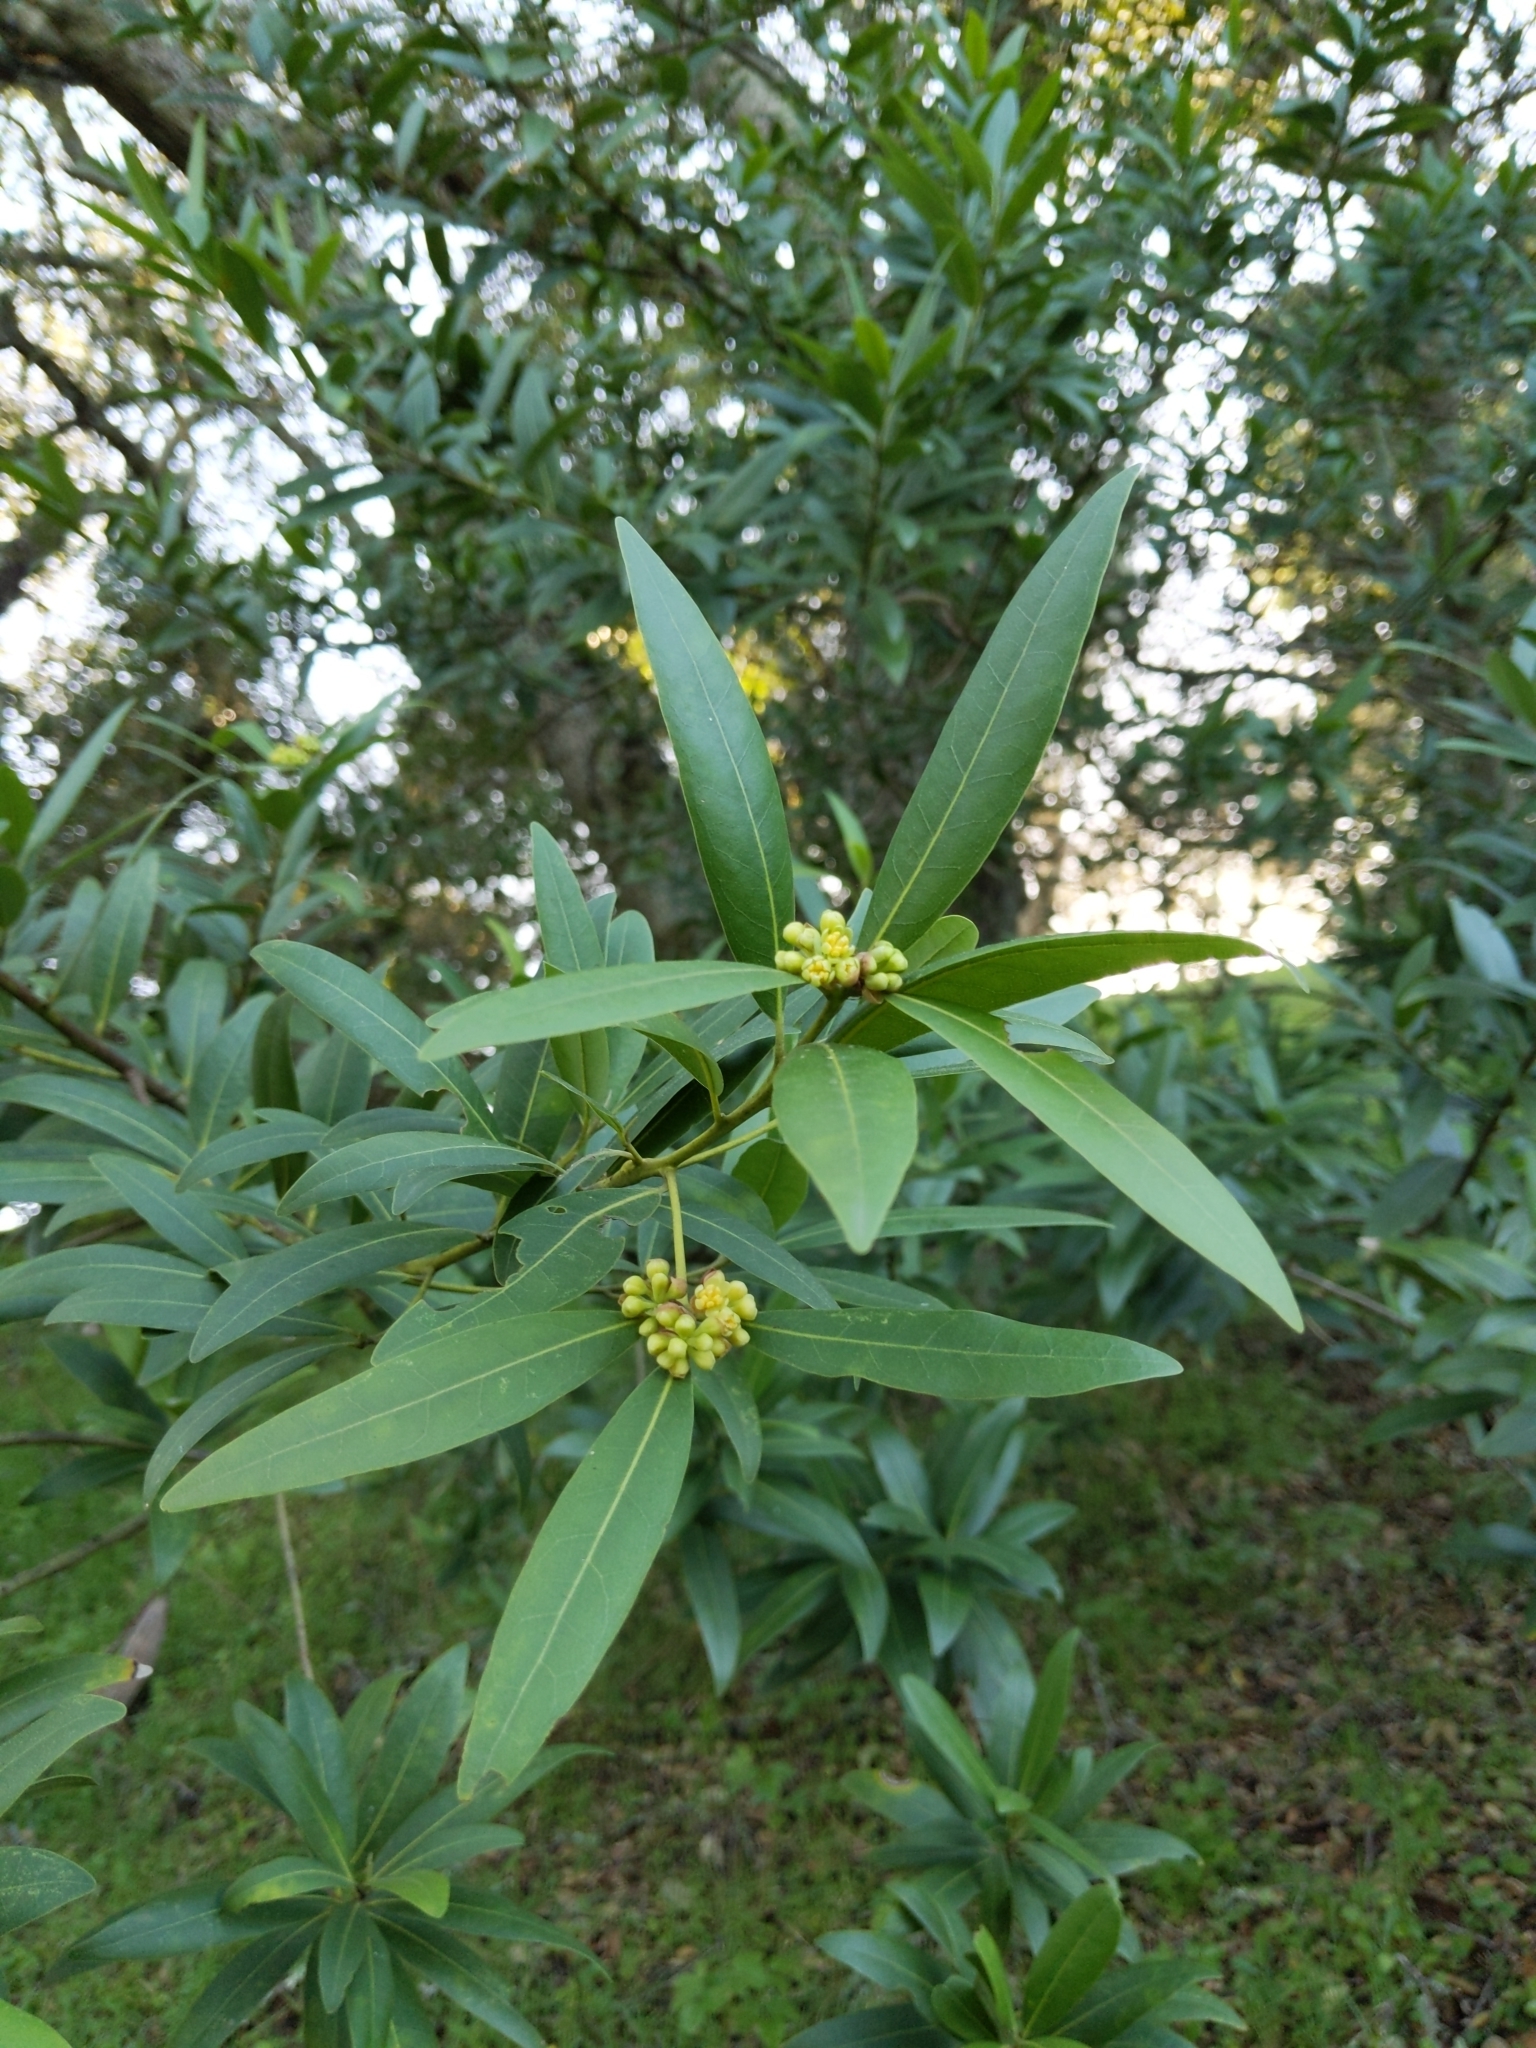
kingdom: Plantae
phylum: Tracheophyta
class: Magnoliopsida
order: Laurales
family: Lauraceae
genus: Umbellularia
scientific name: Umbellularia californica
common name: California bay
